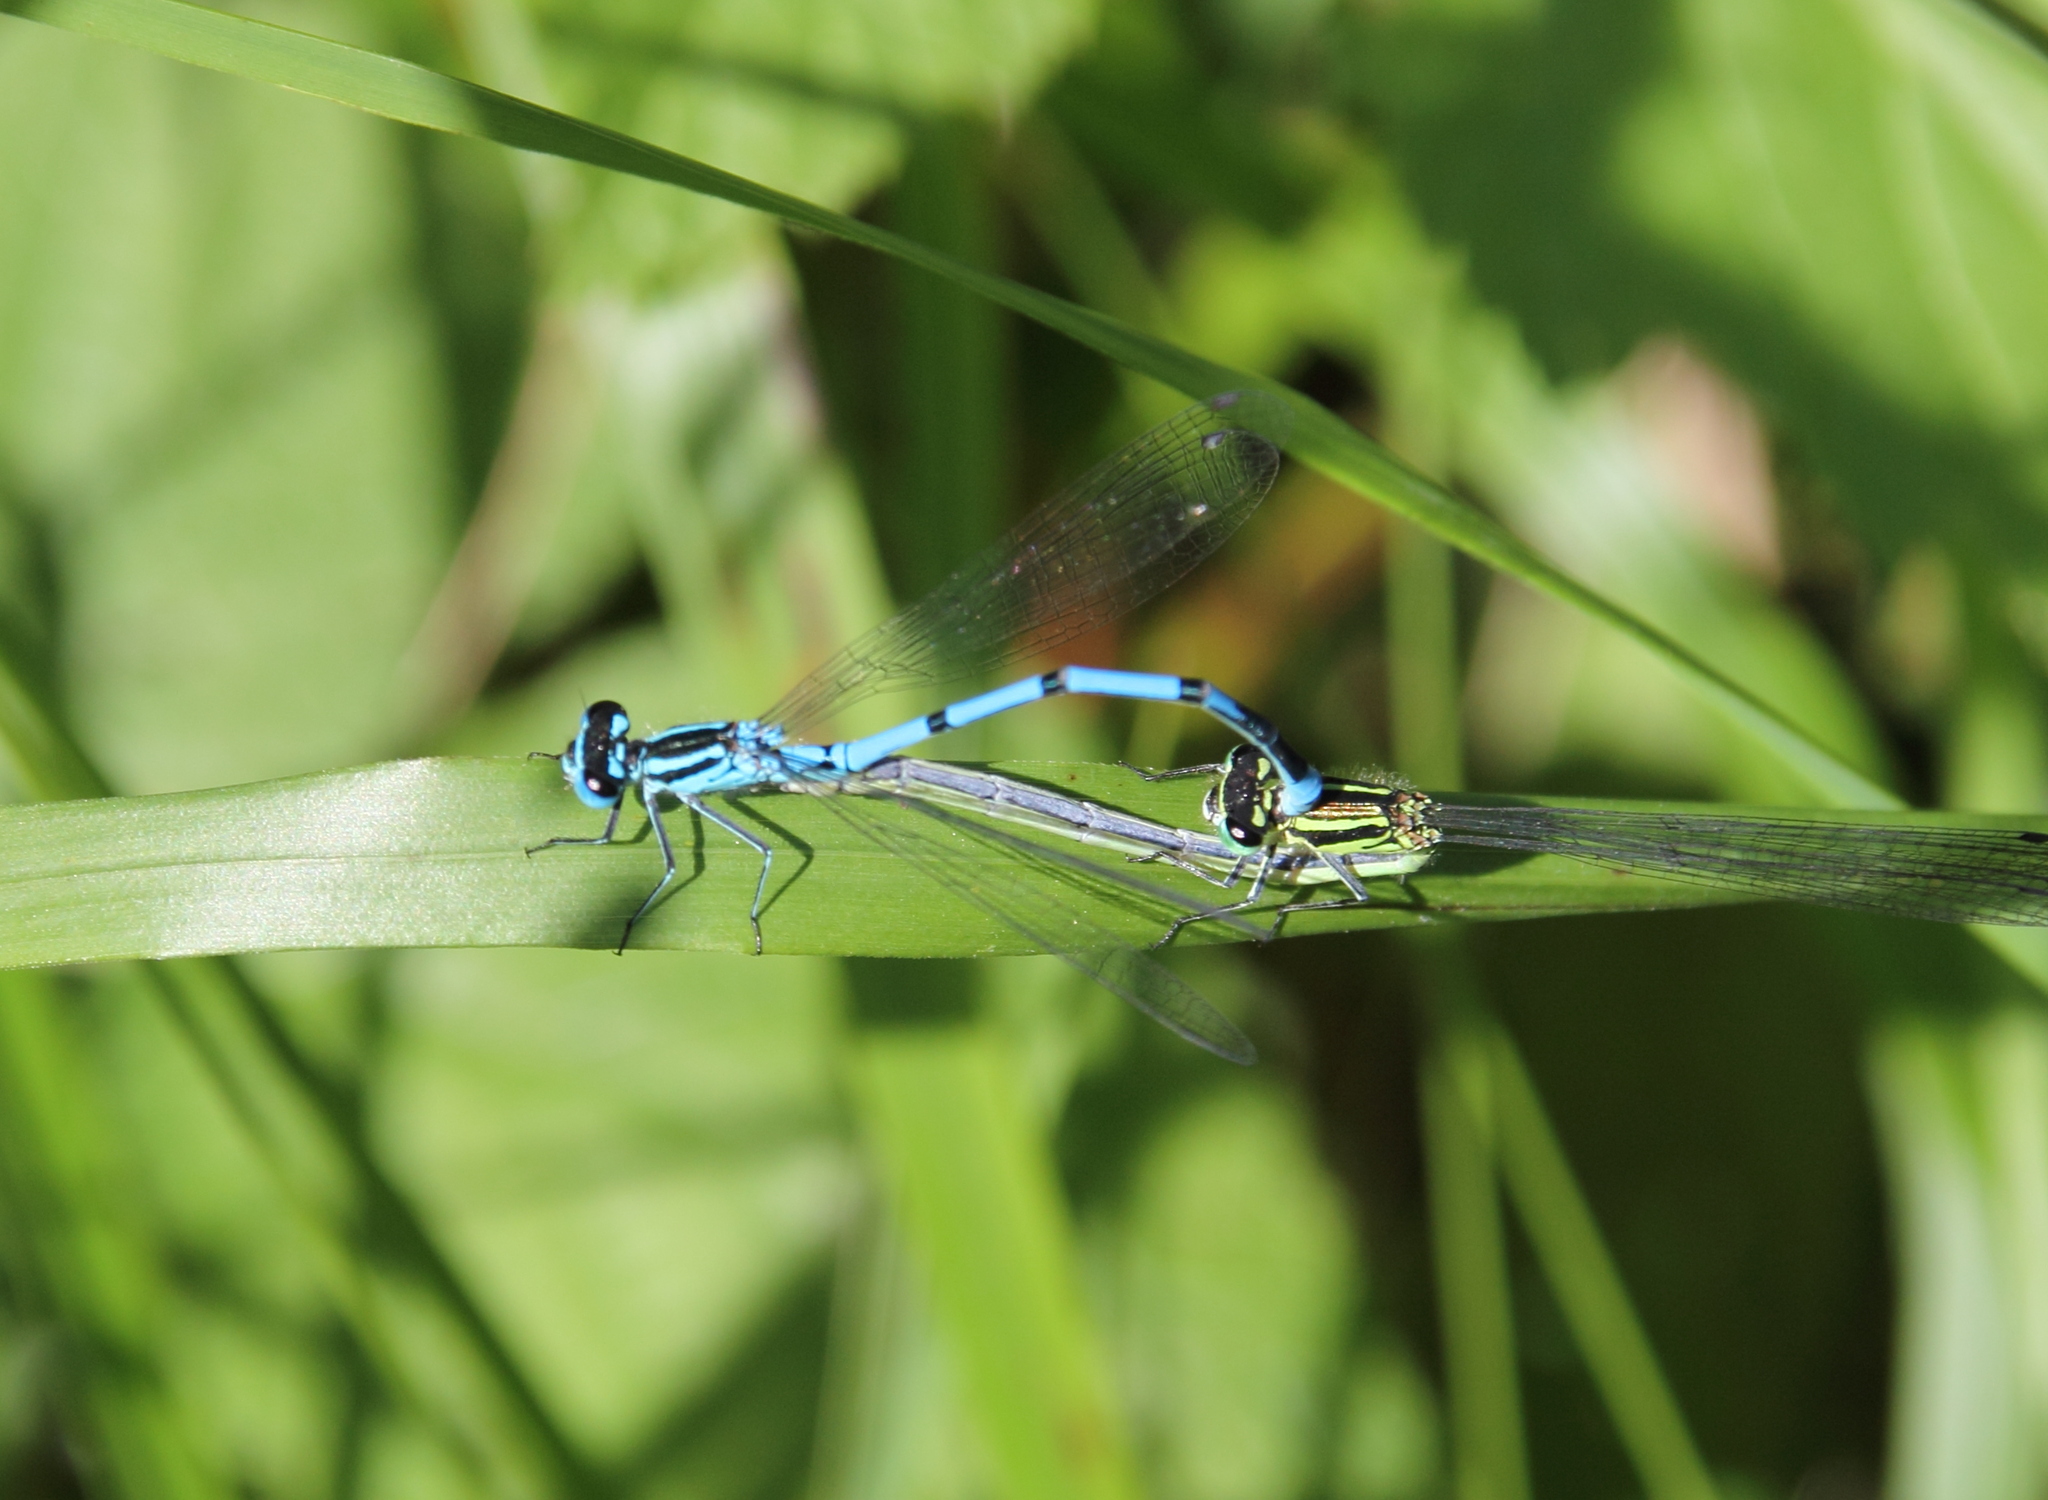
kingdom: Animalia
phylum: Arthropoda
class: Insecta
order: Odonata
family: Coenagrionidae
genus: Coenagrion
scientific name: Coenagrion puella
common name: Azure damselfly
